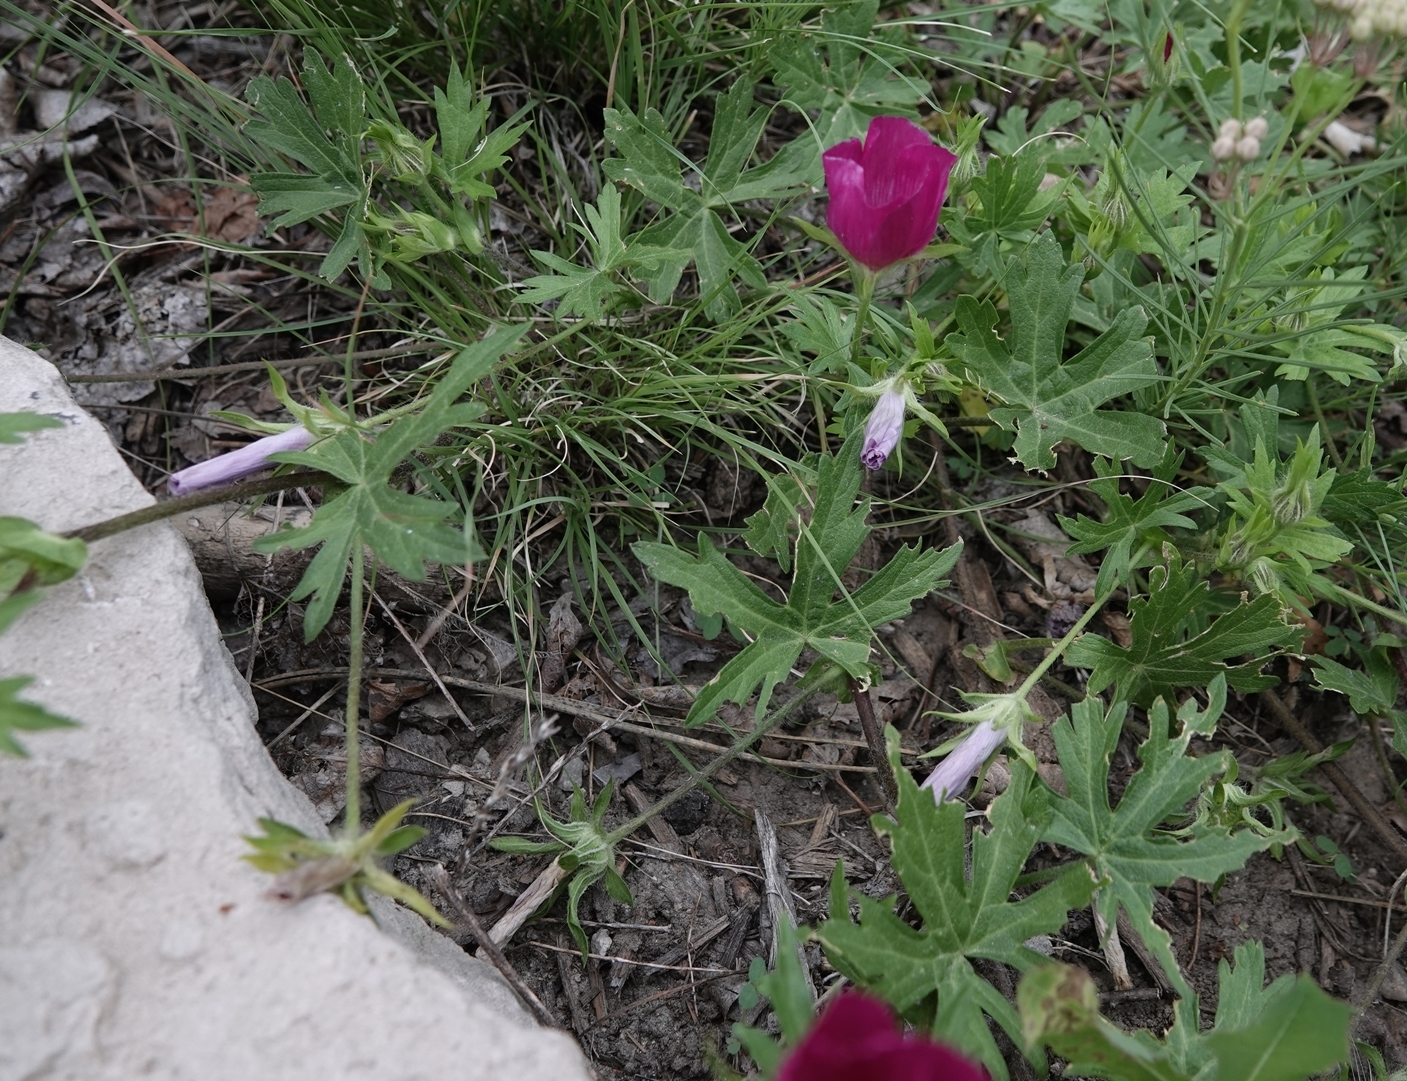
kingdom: Plantae
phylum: Tracheophyta
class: Magnoliopsida
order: Malvales
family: Malvaceae
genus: Callirhoe
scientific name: Callirhoe involucrata
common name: Purple poppy-mallow
